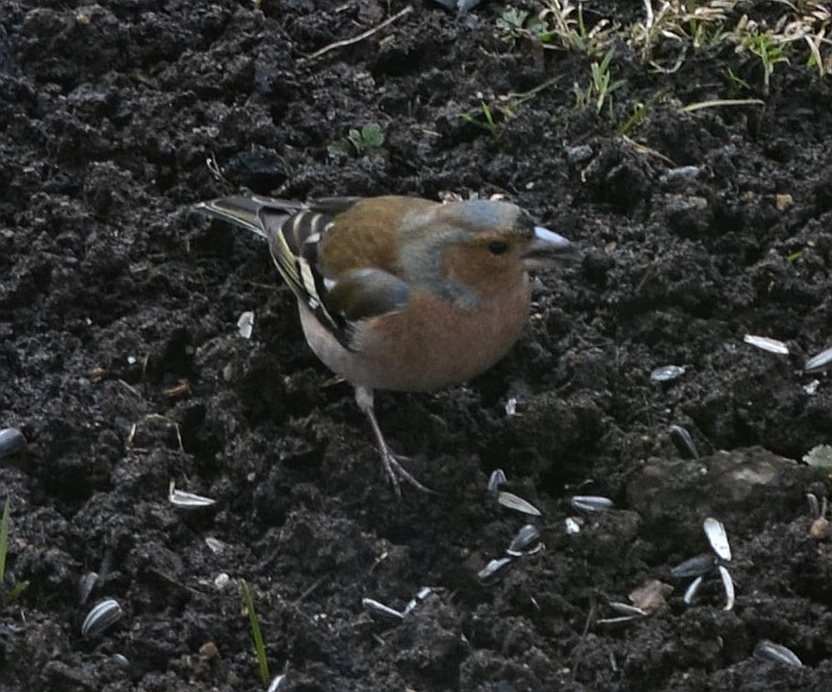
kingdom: Animalia
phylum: Chordata
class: Aves
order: Passeriformes
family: Fringillidae
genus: Fringilla
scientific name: Fringilla coelebs
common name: Common chaffinch
